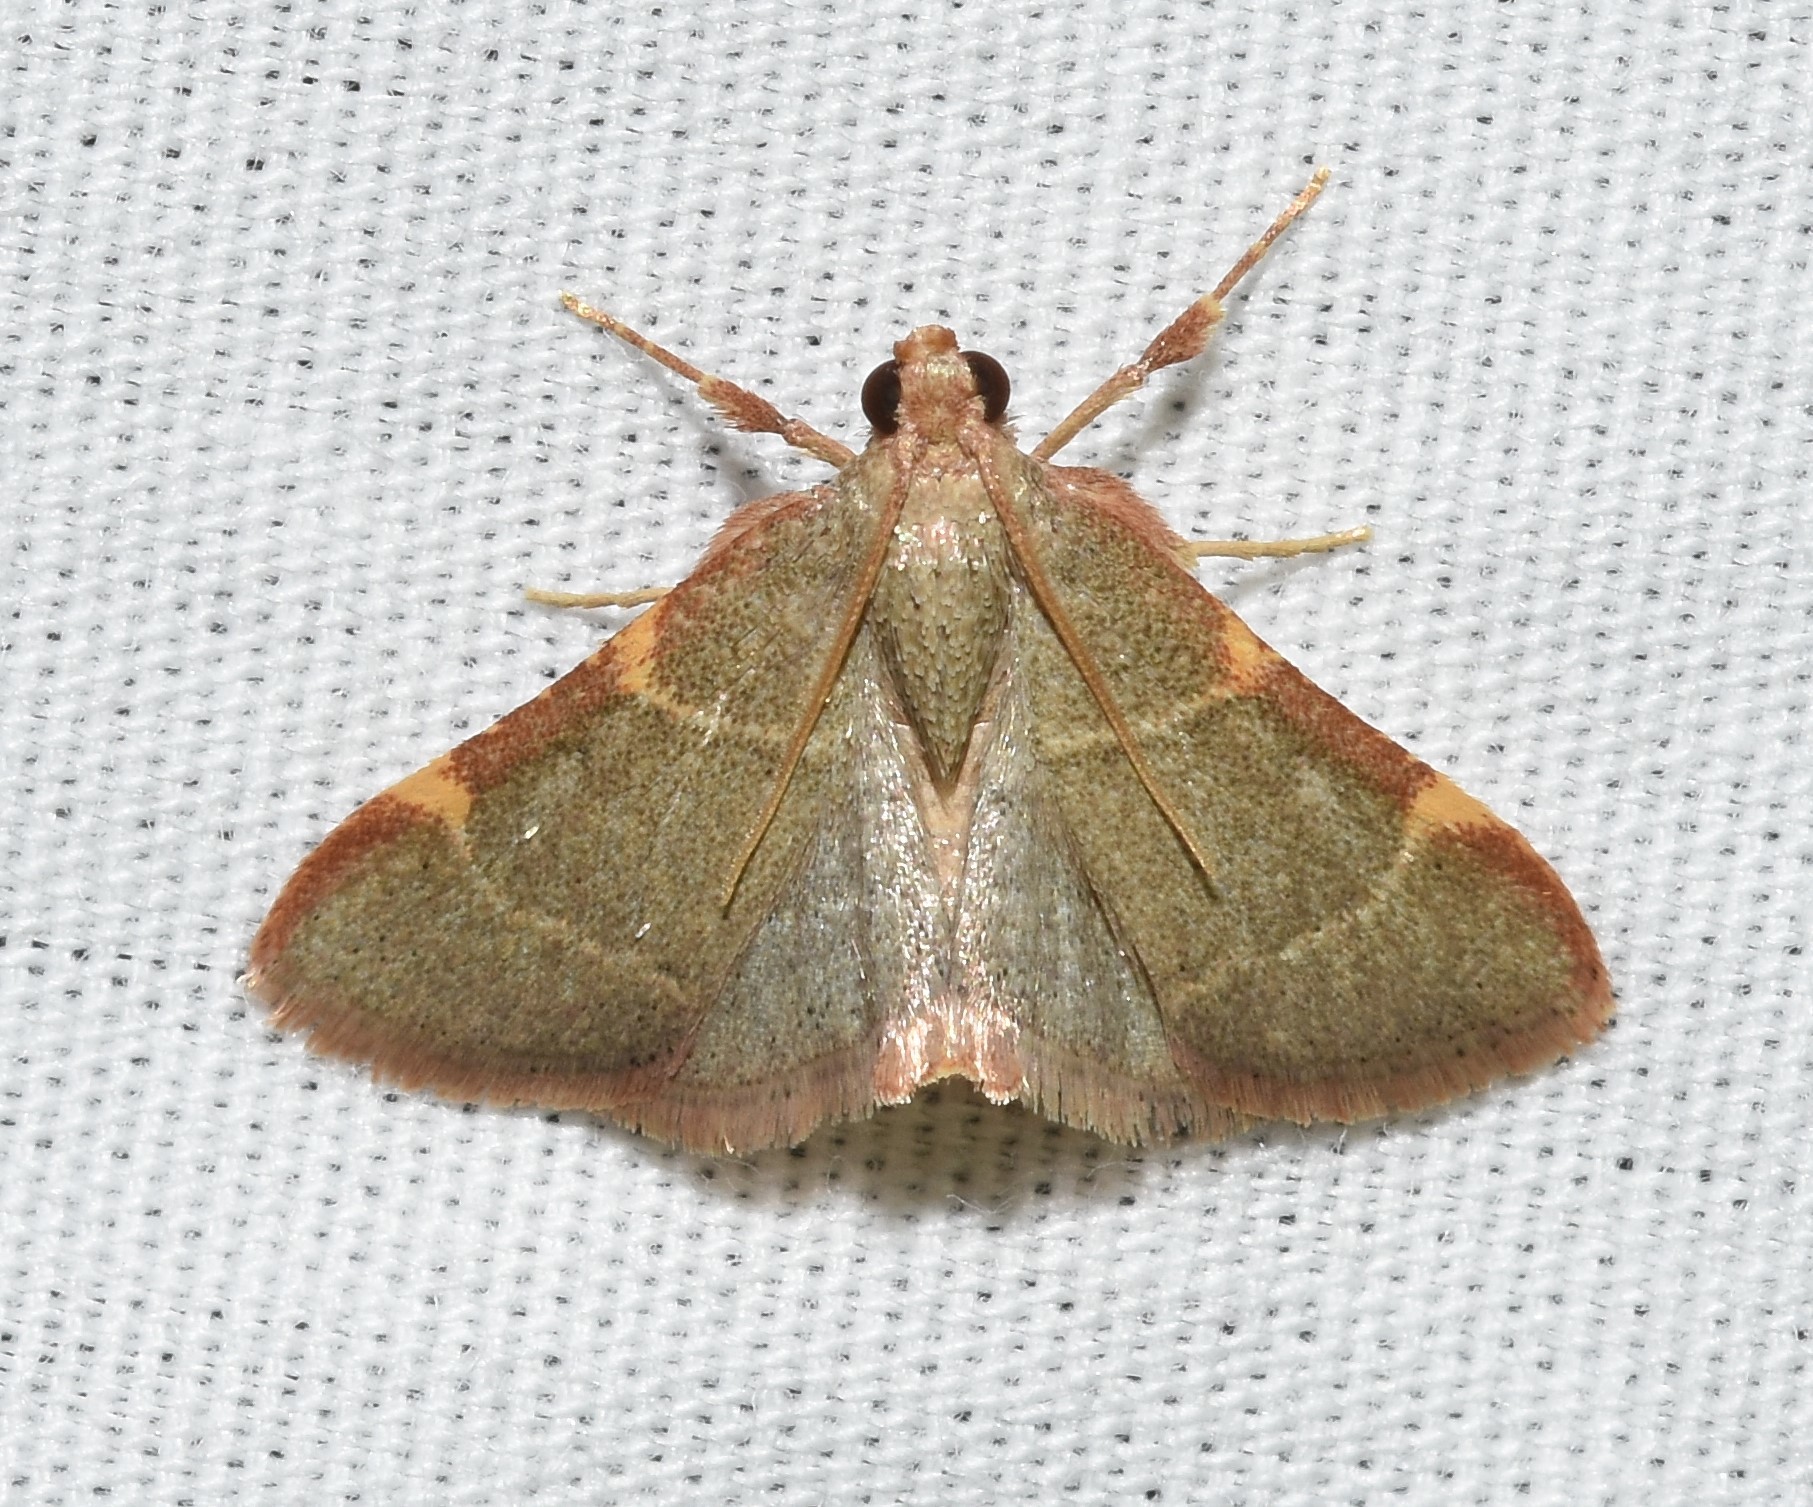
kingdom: Animalia
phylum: Arthropoda
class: Insecta
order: Lepidoptera
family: Pyralidae
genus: Hypsopygia
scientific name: Hypsopygia binodulalis
